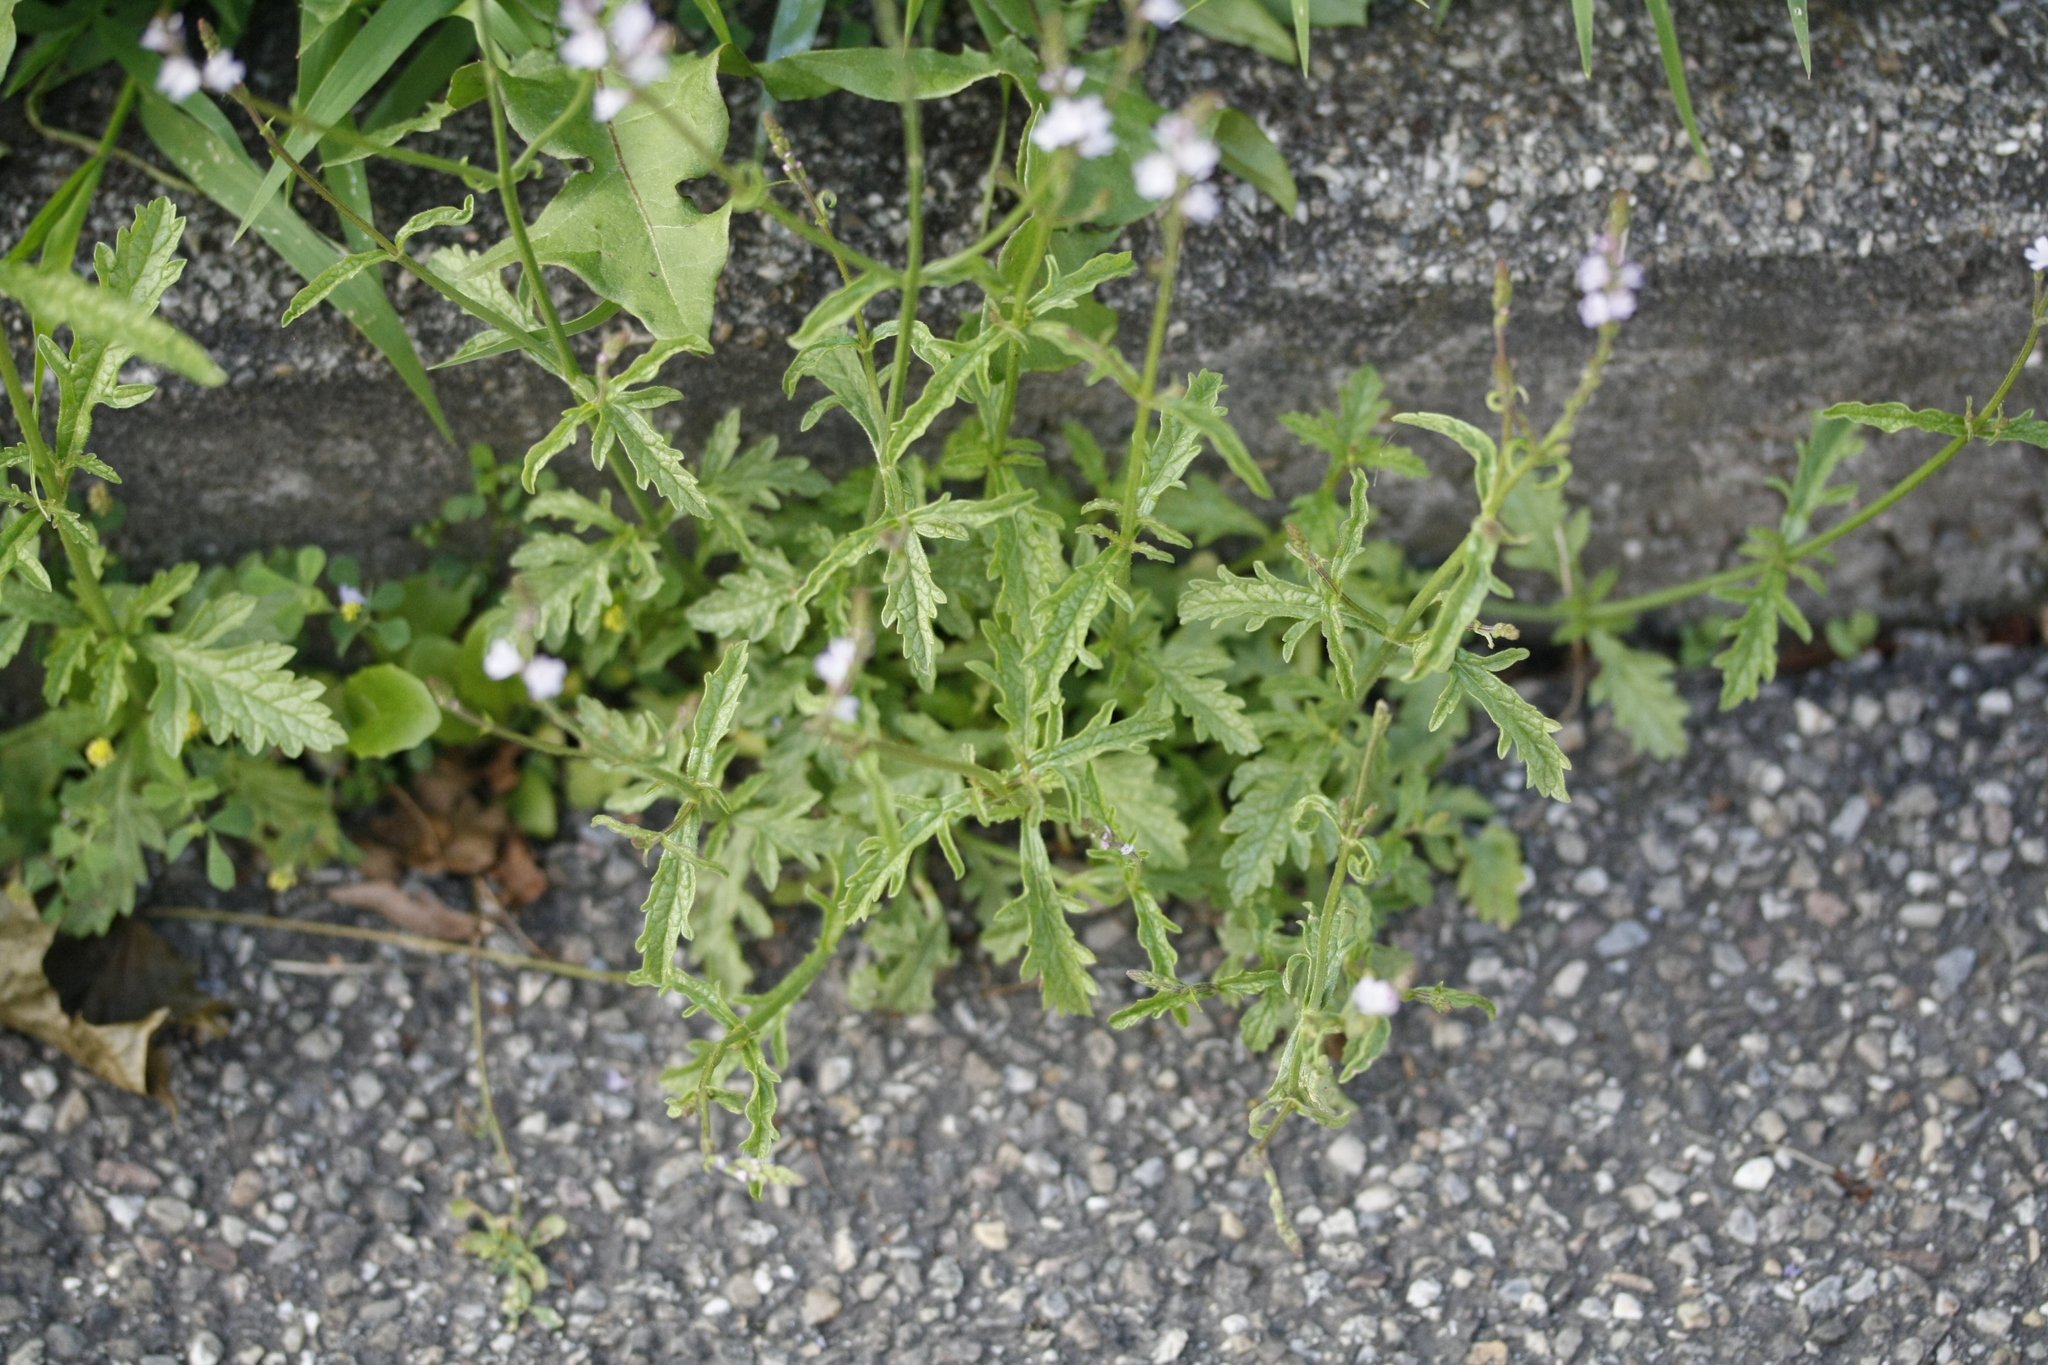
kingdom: Plantae
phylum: Tracheophyta
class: Magnoliopsida
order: Lamiales
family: Verbenaceae
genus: Verbena
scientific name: Verbena officinalis
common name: Vervain
